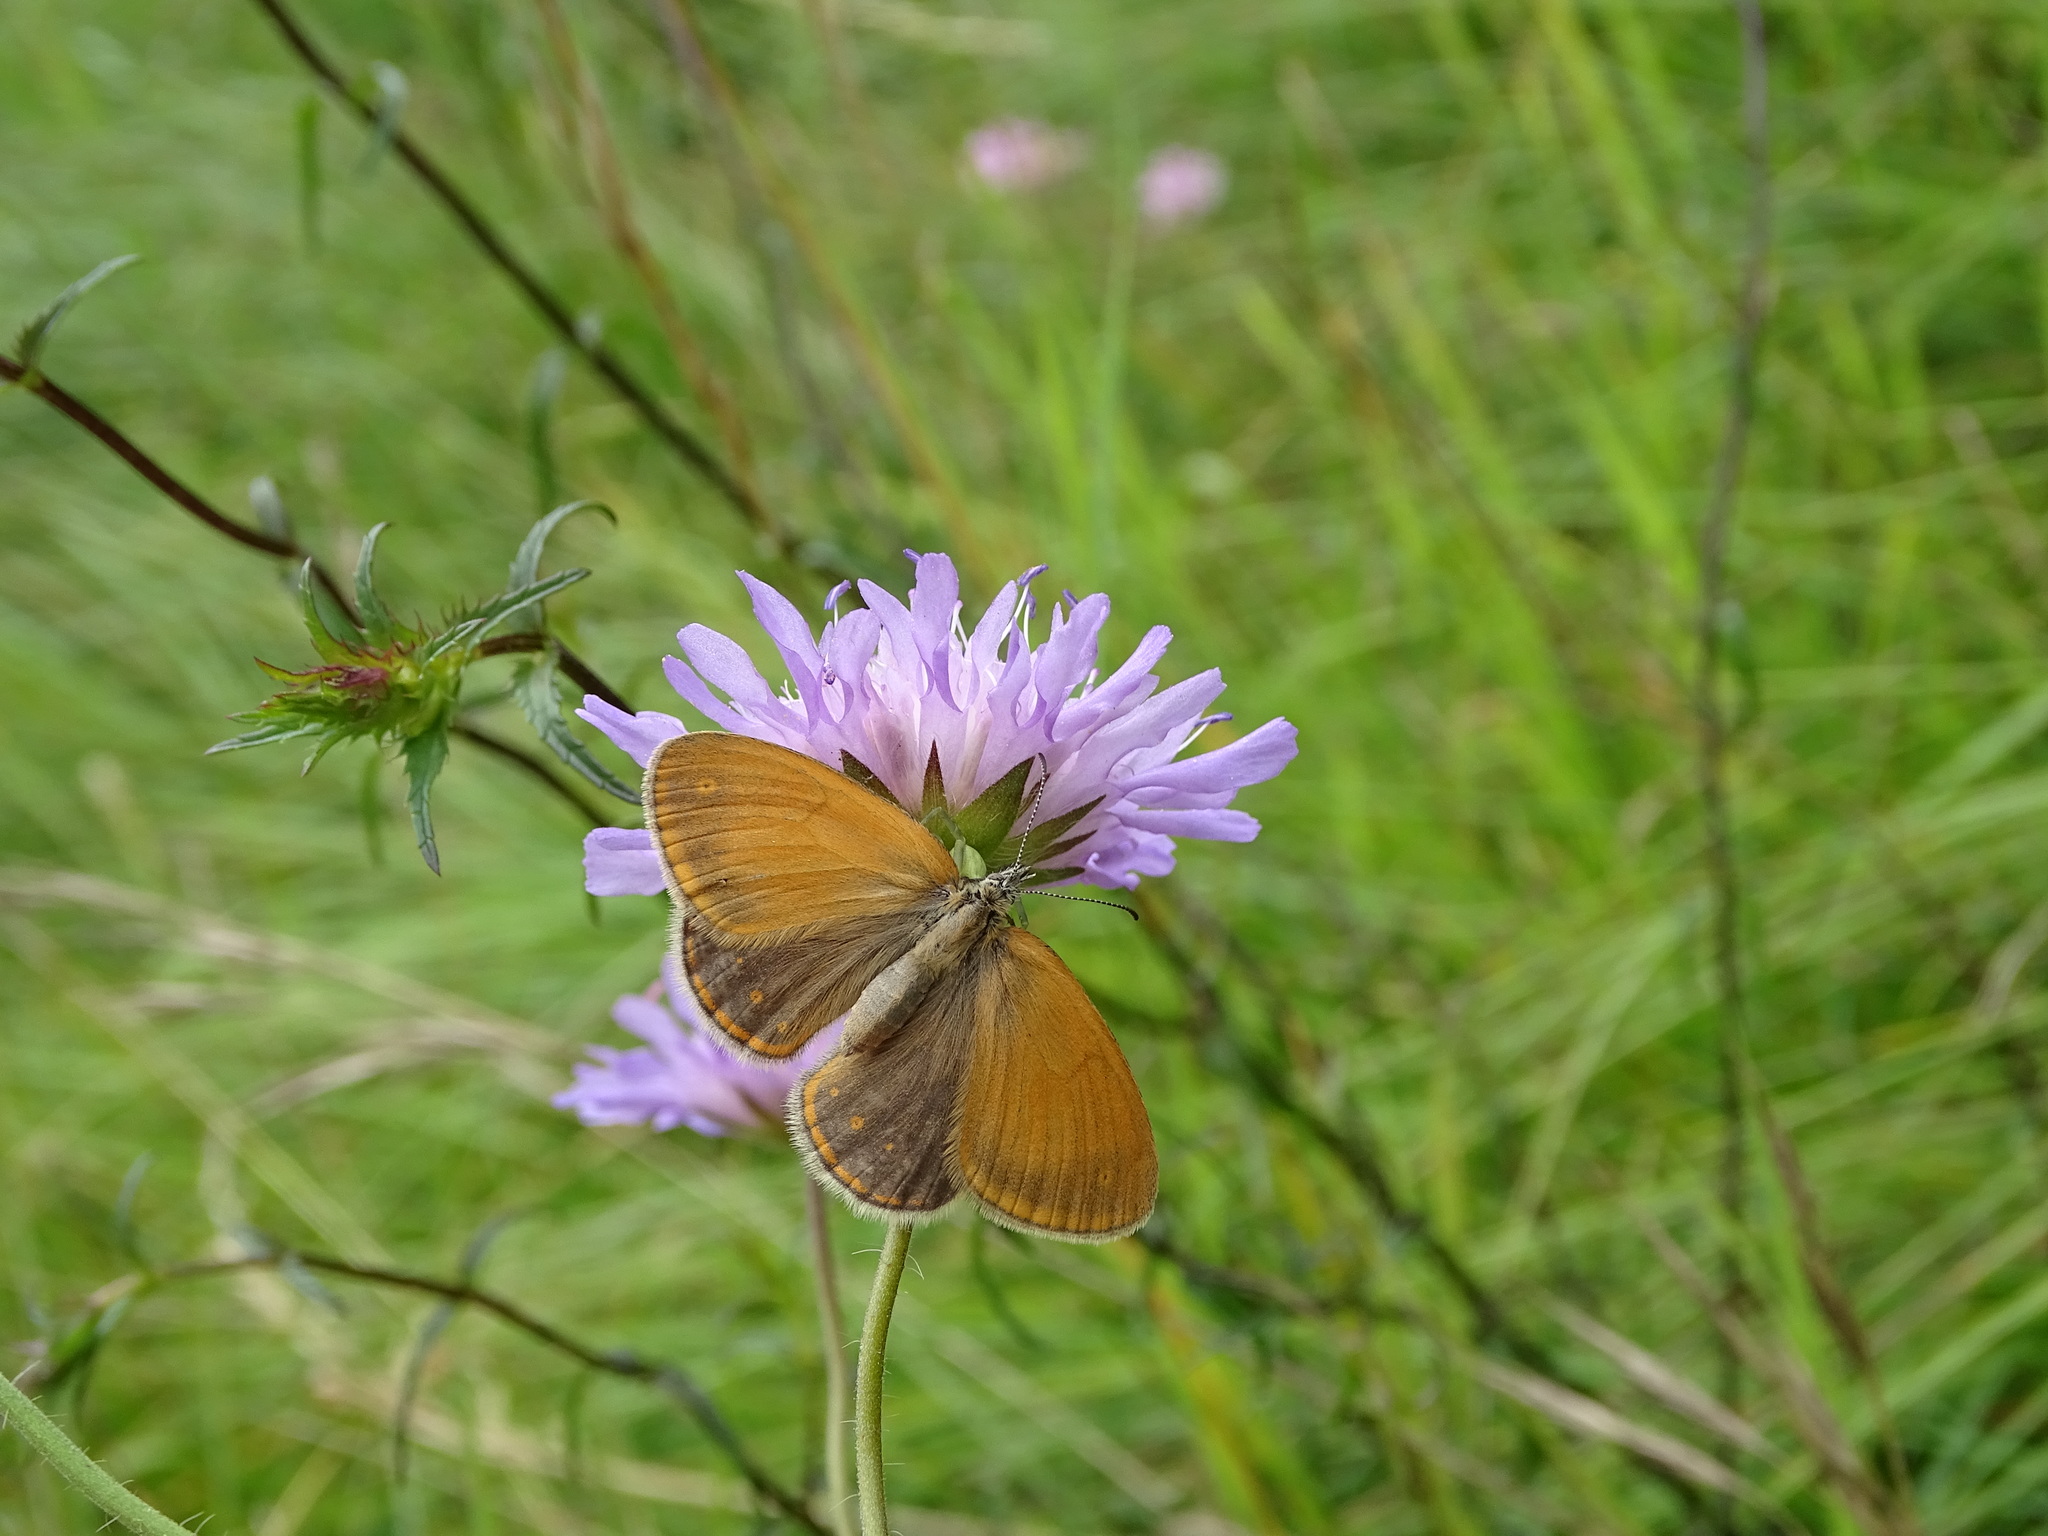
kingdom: Animalia
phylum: Arthropoda
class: Insecta
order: Lepidoptera
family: Nymphalidae
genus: Coenonympha
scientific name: Coenonympha iphis
